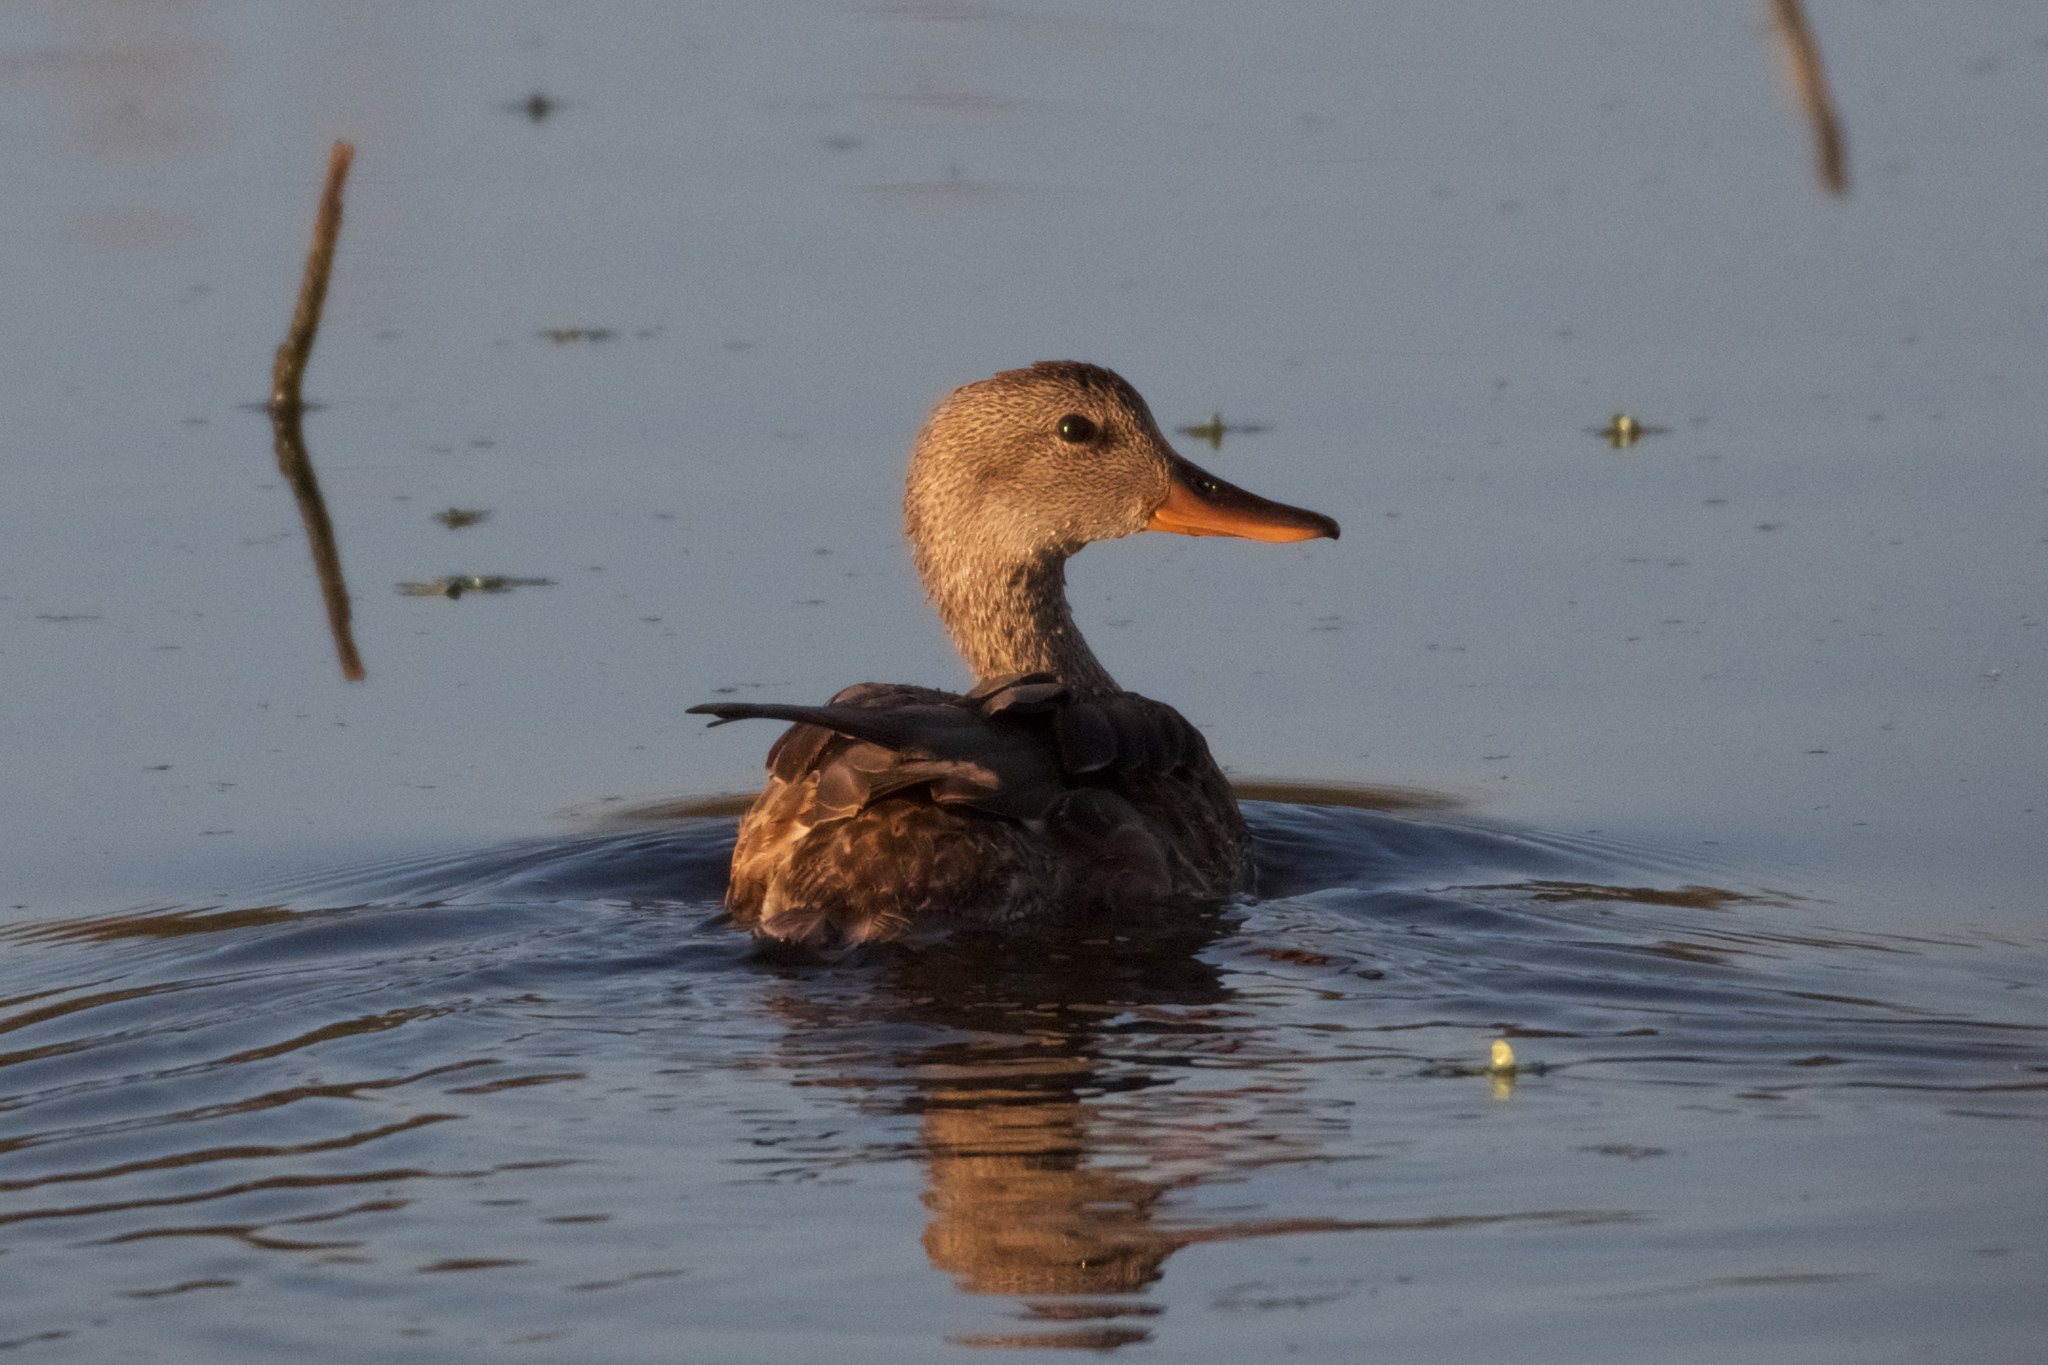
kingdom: Animalia
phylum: Chordata
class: Aves
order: Anseriformes
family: Anatidae
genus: Mareca
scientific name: Mareca strepera
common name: Gadwall
